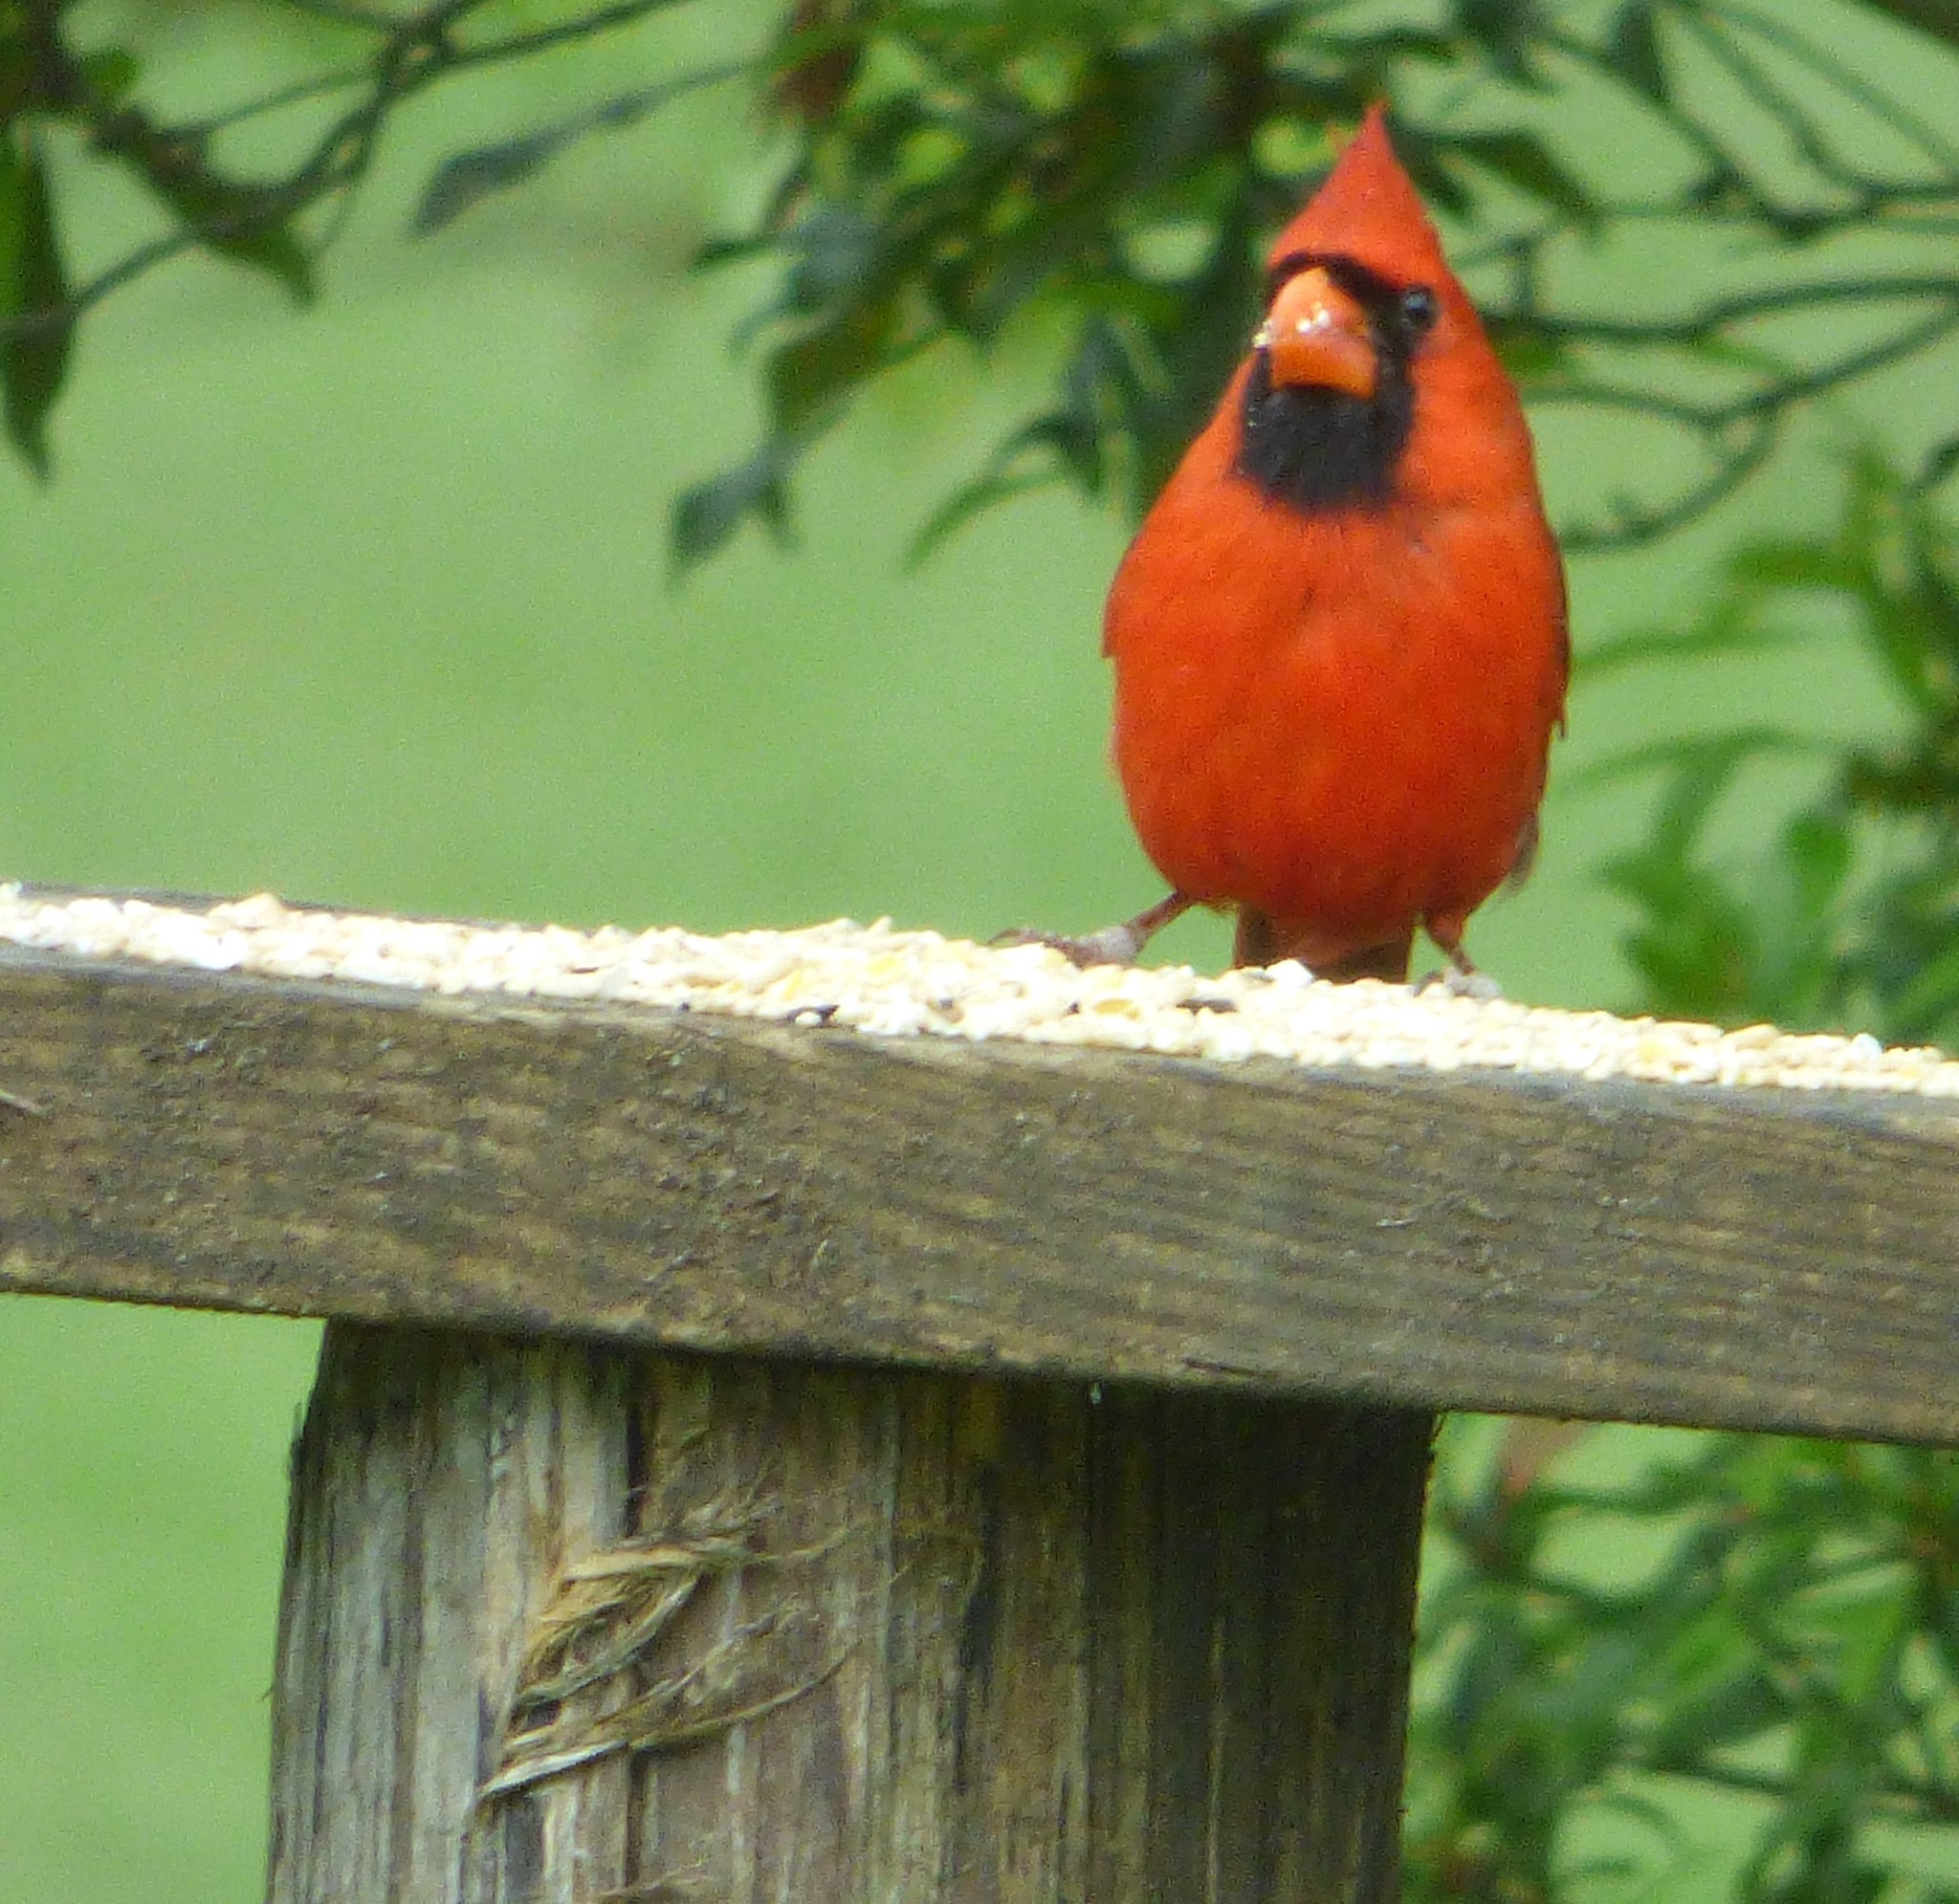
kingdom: Animalia
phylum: Chordata
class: Aves
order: Passeriformes
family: Cardinalidae
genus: Cardinalis
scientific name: Cardinalis cardinalis
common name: Northern cardinal
